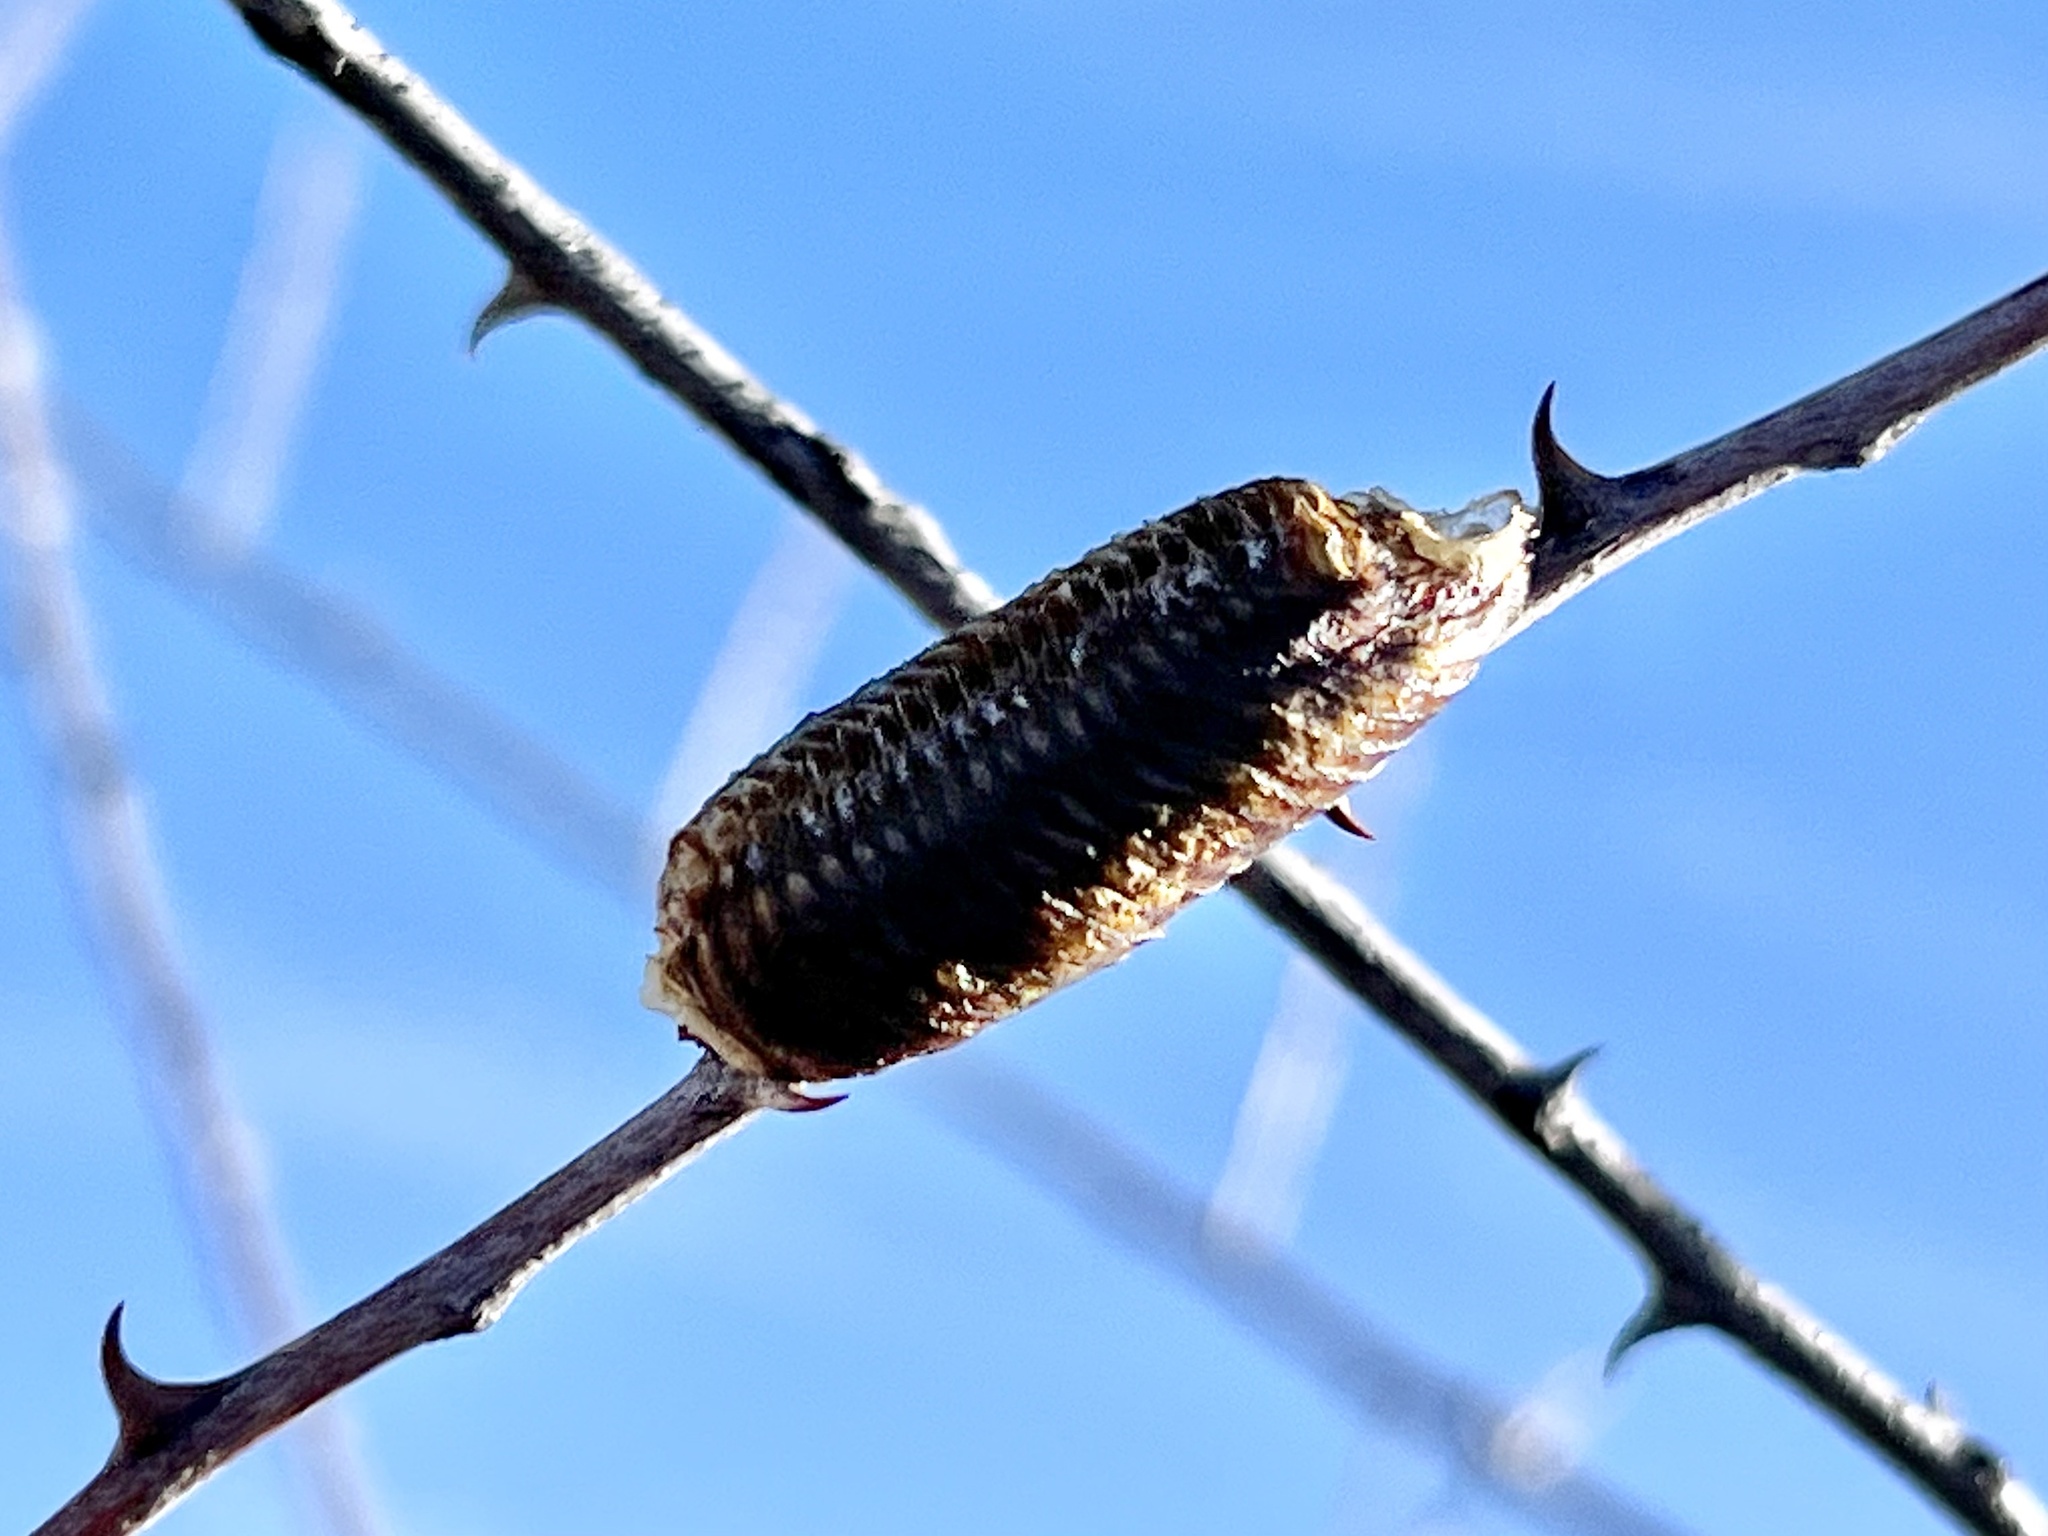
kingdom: Animalia
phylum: Arthropoda
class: Insecta
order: Mantodea
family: Mantidae
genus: Stagmomantis
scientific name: Stagmomantis limbata
